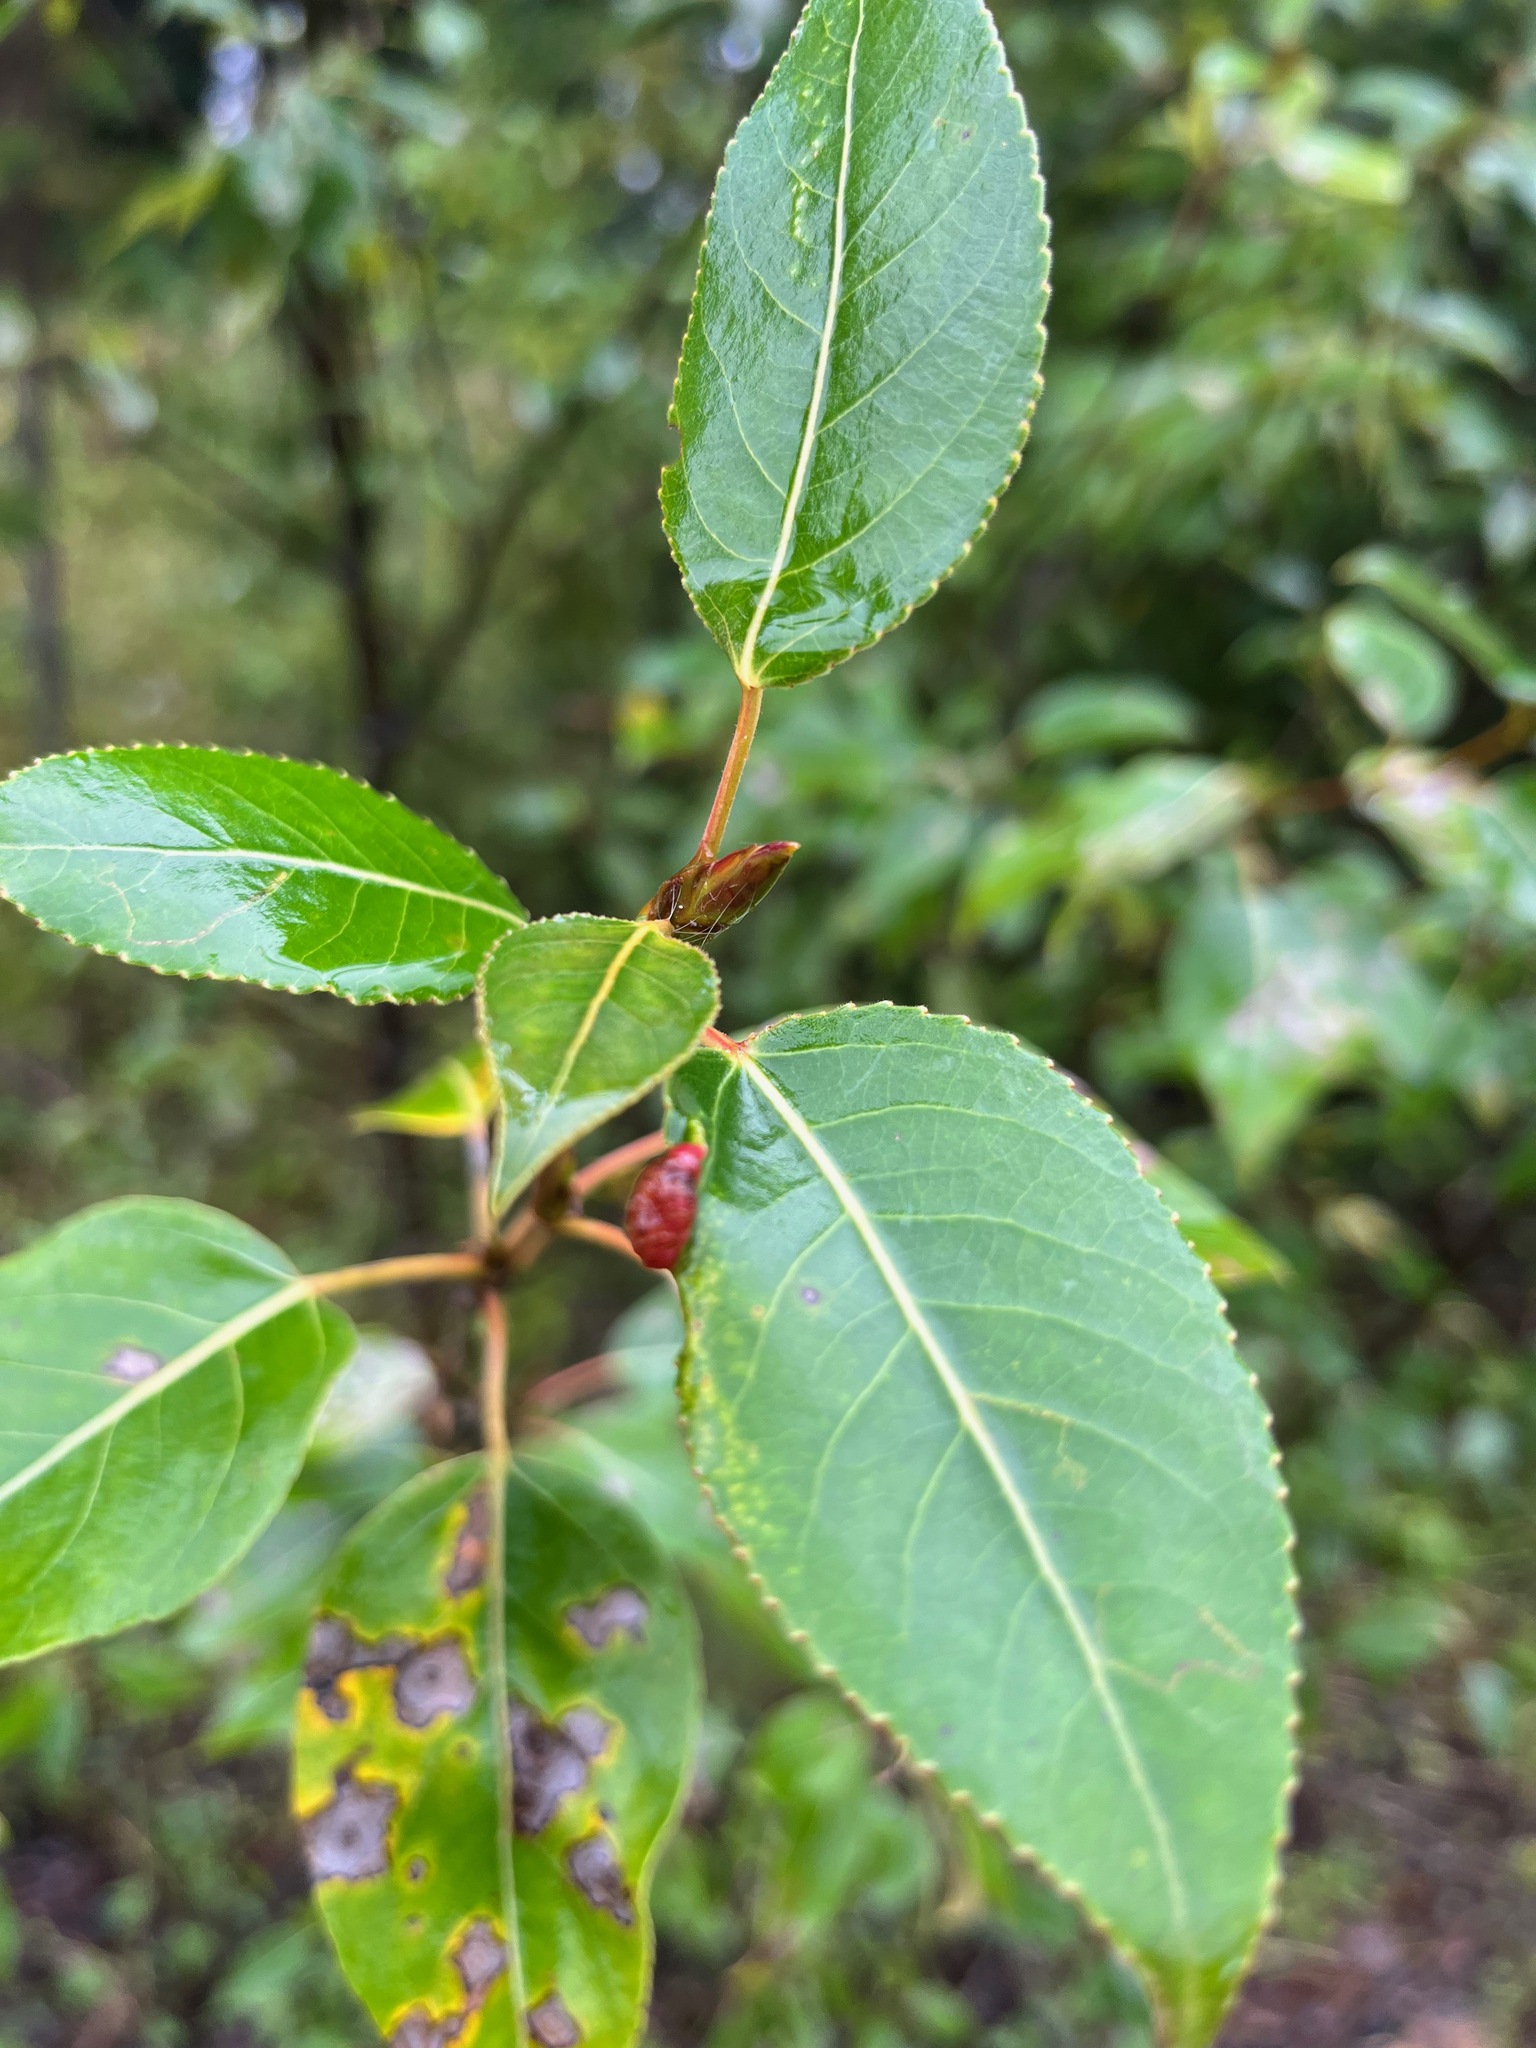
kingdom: Plantae
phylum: Tracheophyta
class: Magnoliopsida
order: Malpighiales
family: Salicaceae
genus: Populus
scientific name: Populus trichocarpa
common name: Black cottonwood
